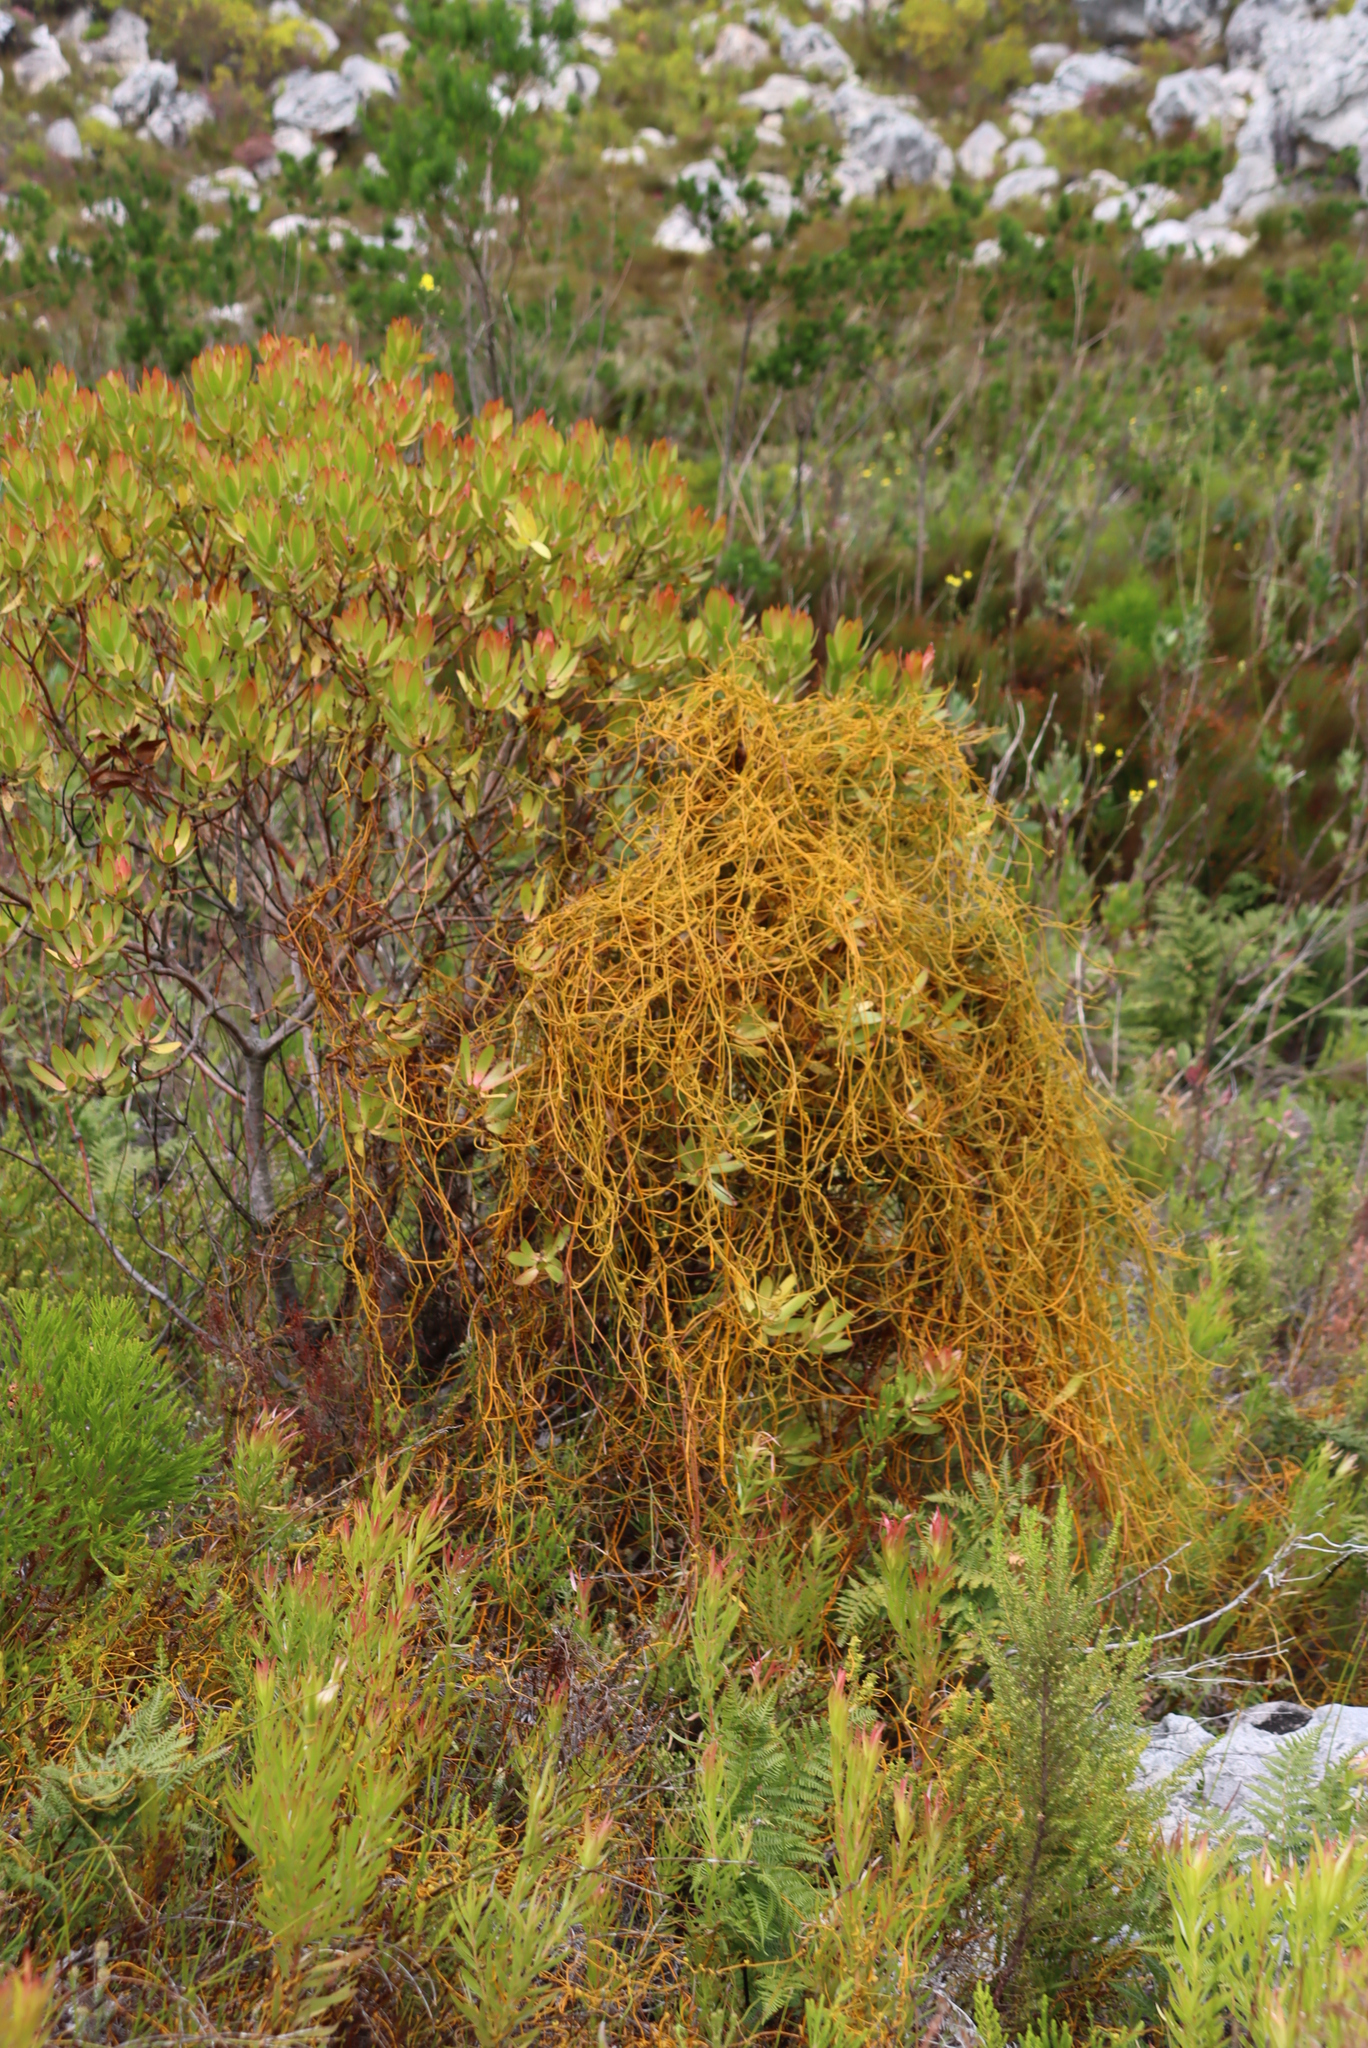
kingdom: Plantae
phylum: Tracheophyta
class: Magnoliopsida
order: Laurales
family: Lauraceae
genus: Cassytha
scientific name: Cassytha ciliolata
